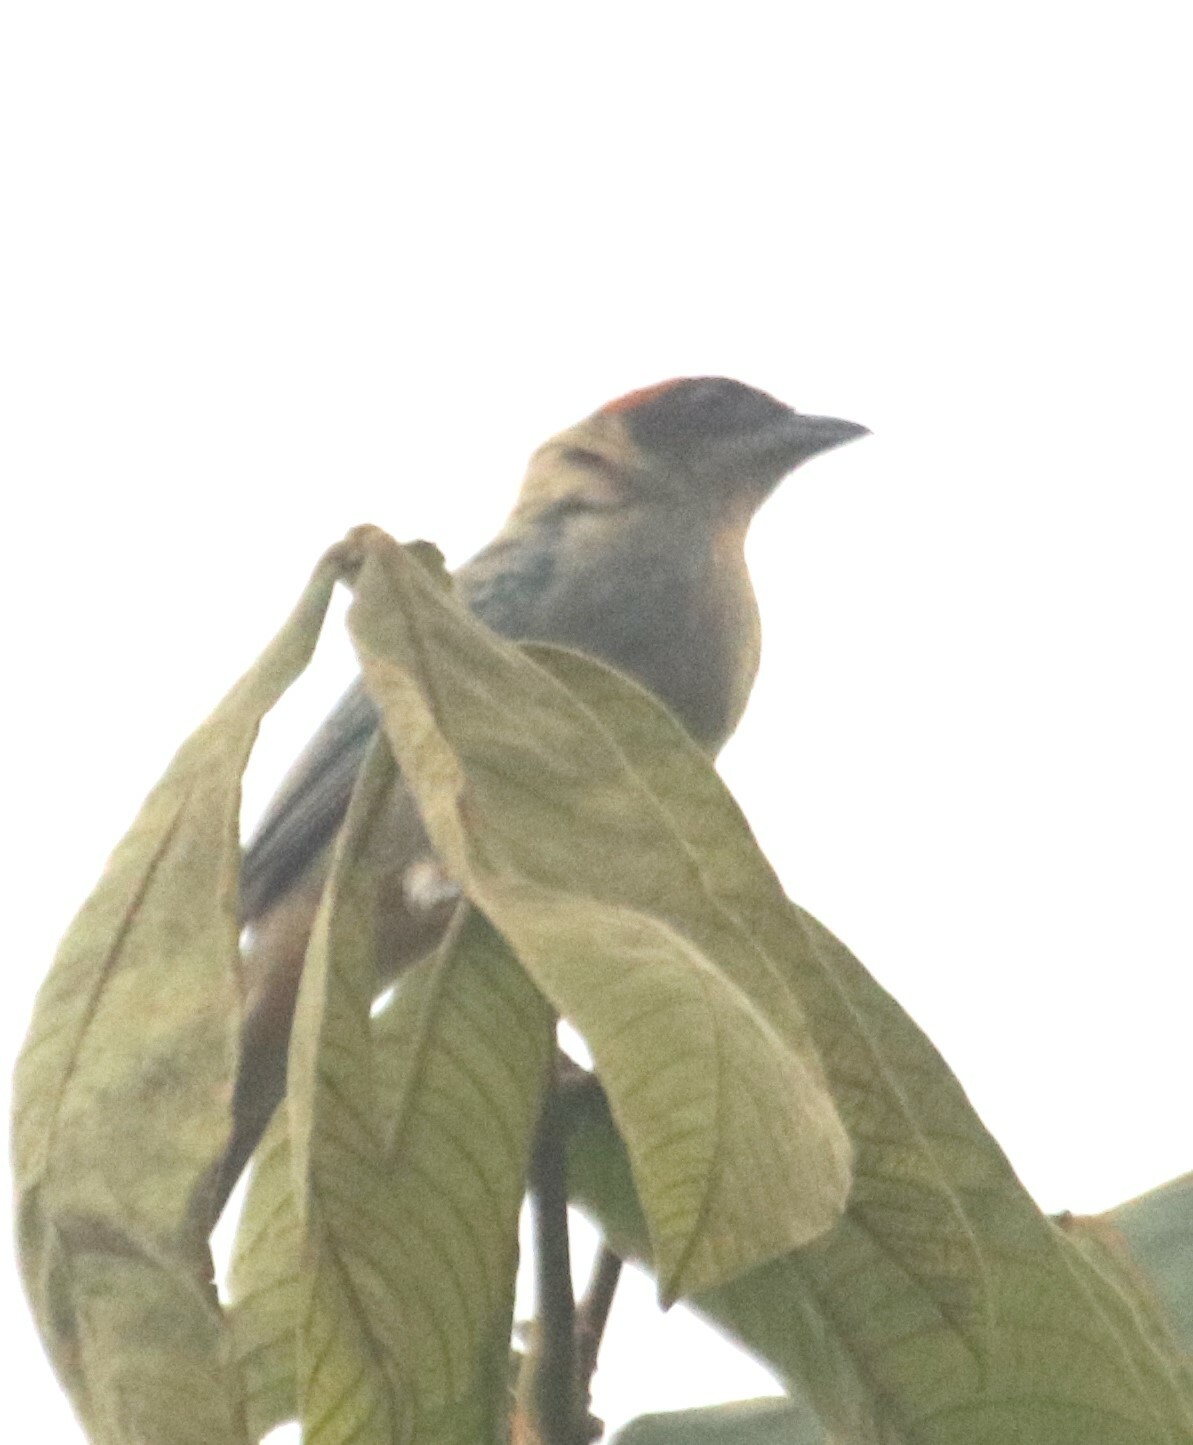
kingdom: Animalia
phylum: Chordata
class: Aves
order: Passeriformes
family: Thraupidae
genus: Stilpnia
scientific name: Stilpnia vitriolina
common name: Scrub tanager
